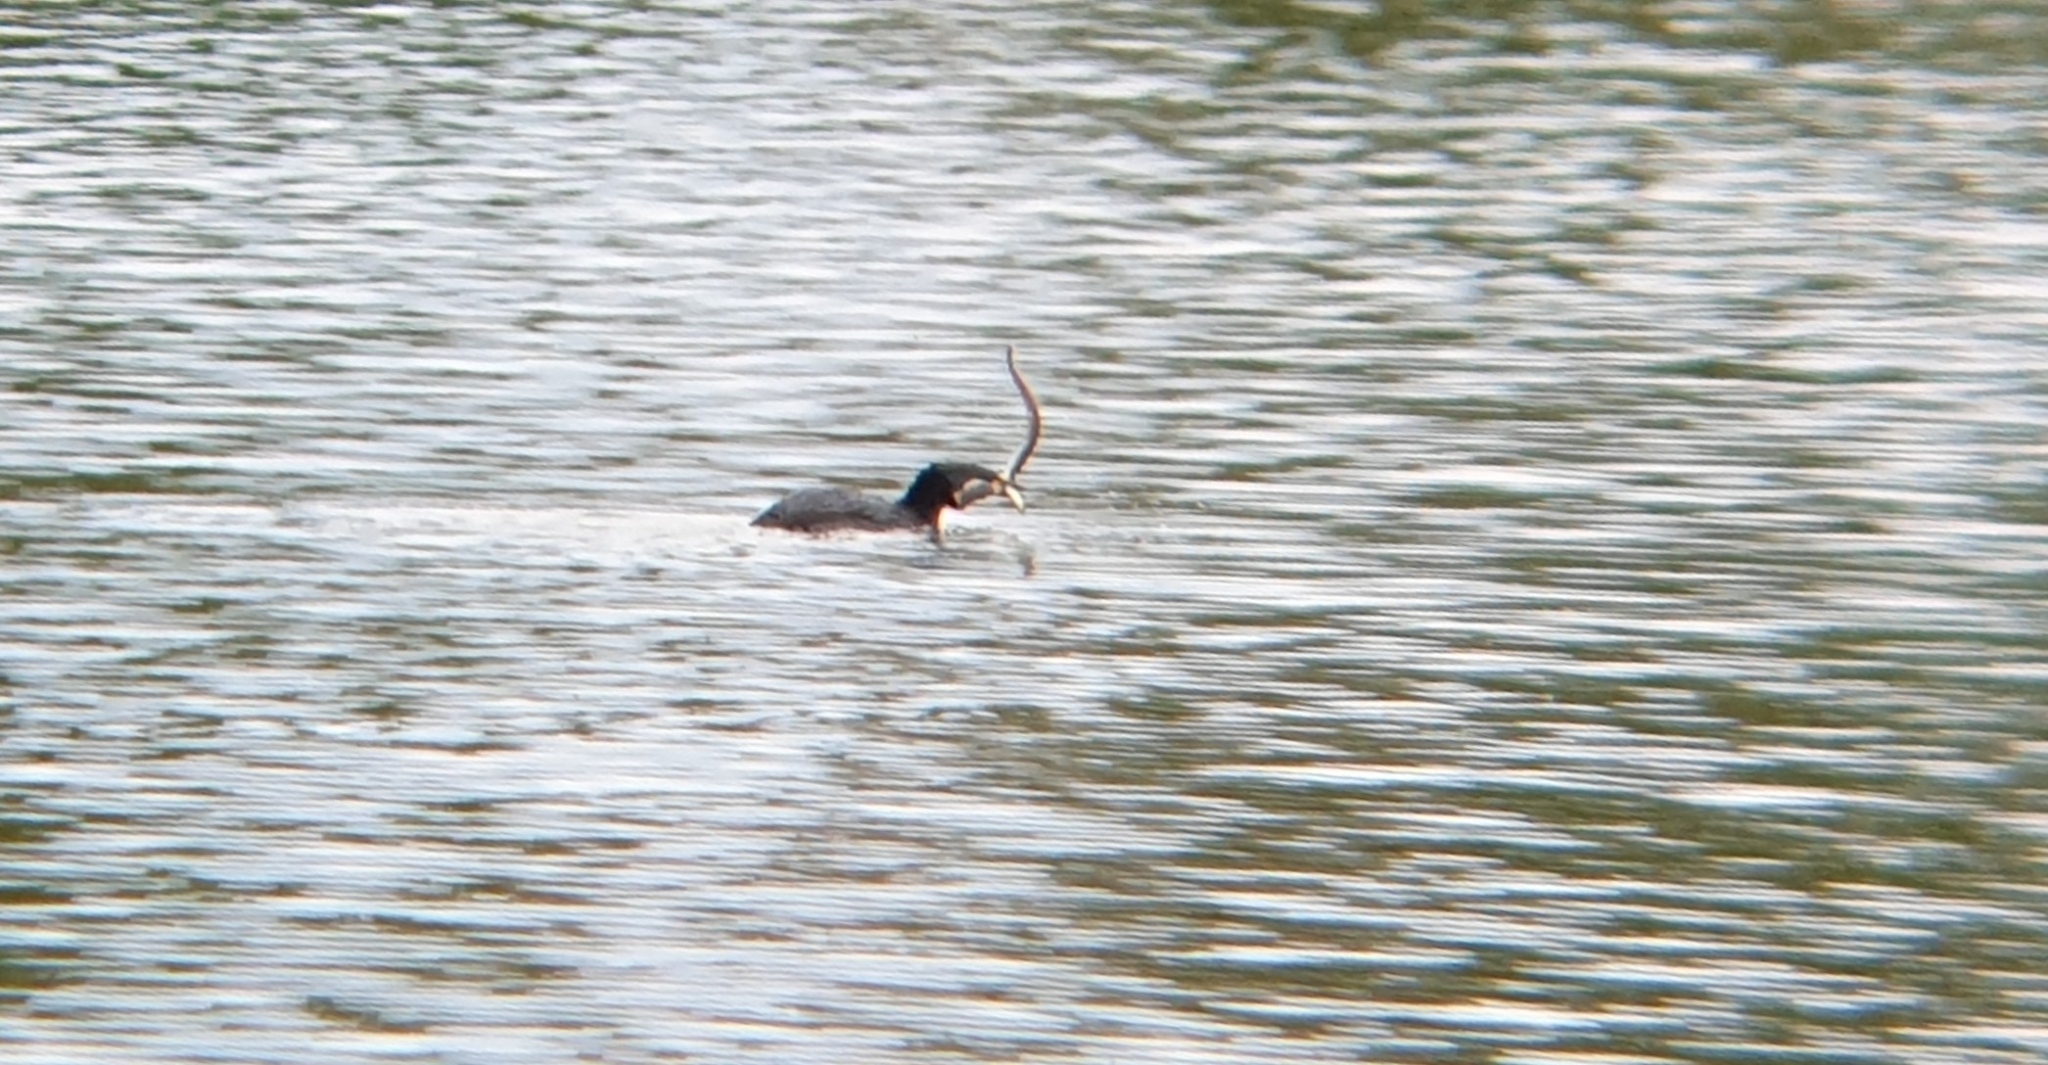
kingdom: Animalia
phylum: Chordata
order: Anguilliformes
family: Anguillidae
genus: Anguilla
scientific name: Anguilla anguilla
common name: European eel
